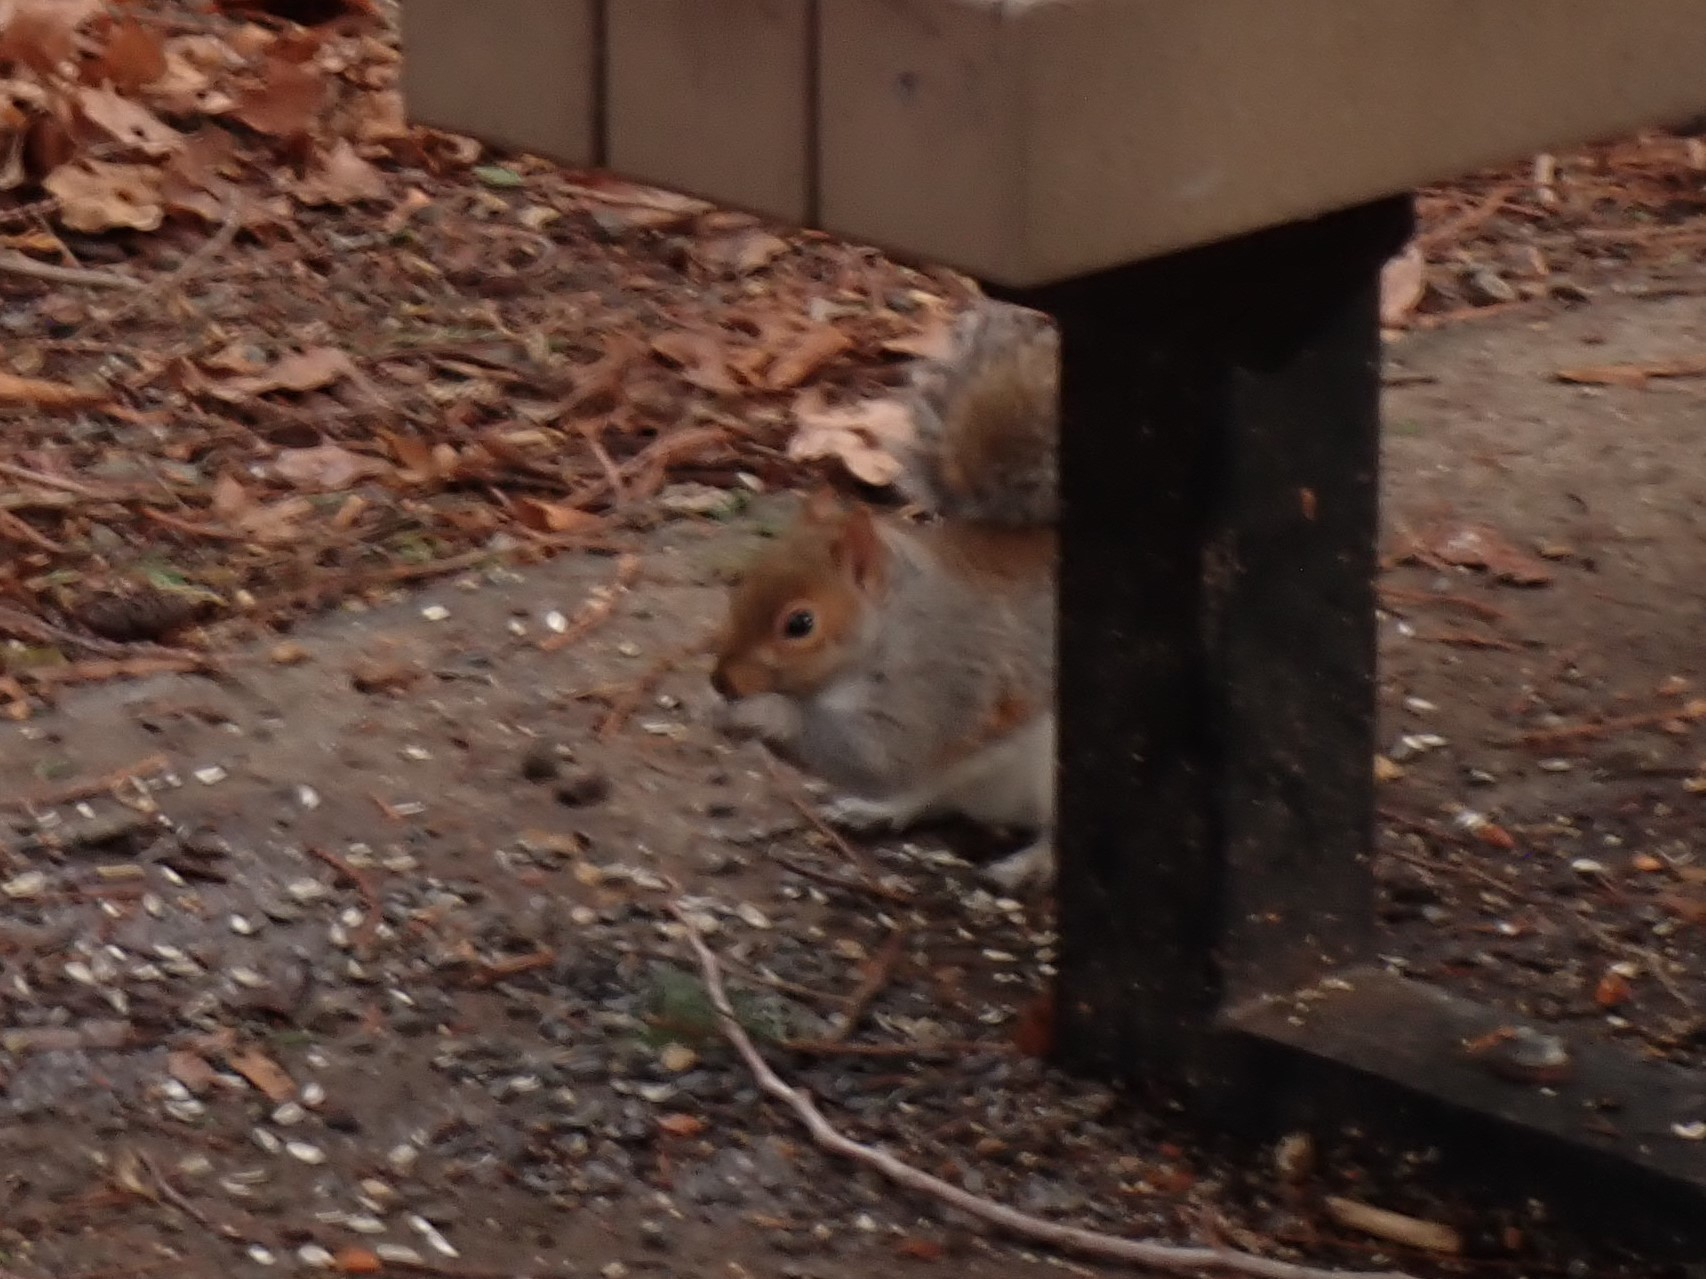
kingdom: Animalia
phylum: Chordata
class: Mammalia
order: Rodentia
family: Sciuridae
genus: Sciurus
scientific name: Sciurus carolinensis
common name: Eastern gray squirrel
